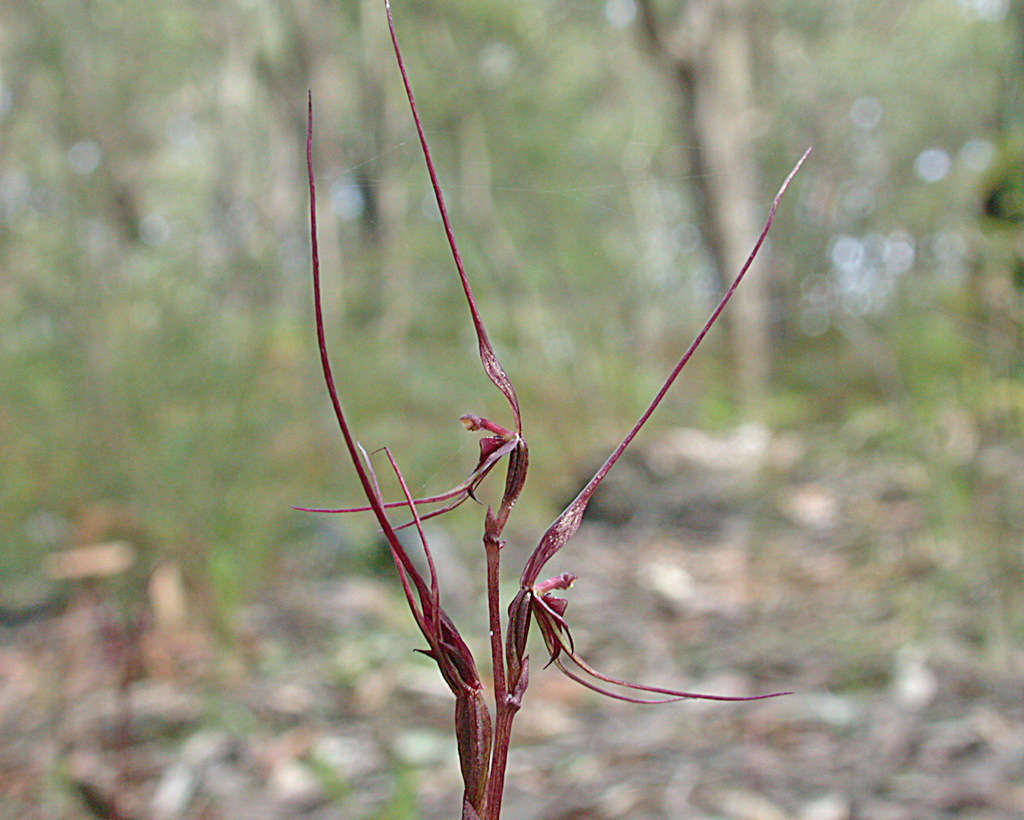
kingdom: Plantae
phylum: Tracheophyta
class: Liliopsida
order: Asparagales
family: Orchidaceae
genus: Acianthus
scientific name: Acianthus caudatus
